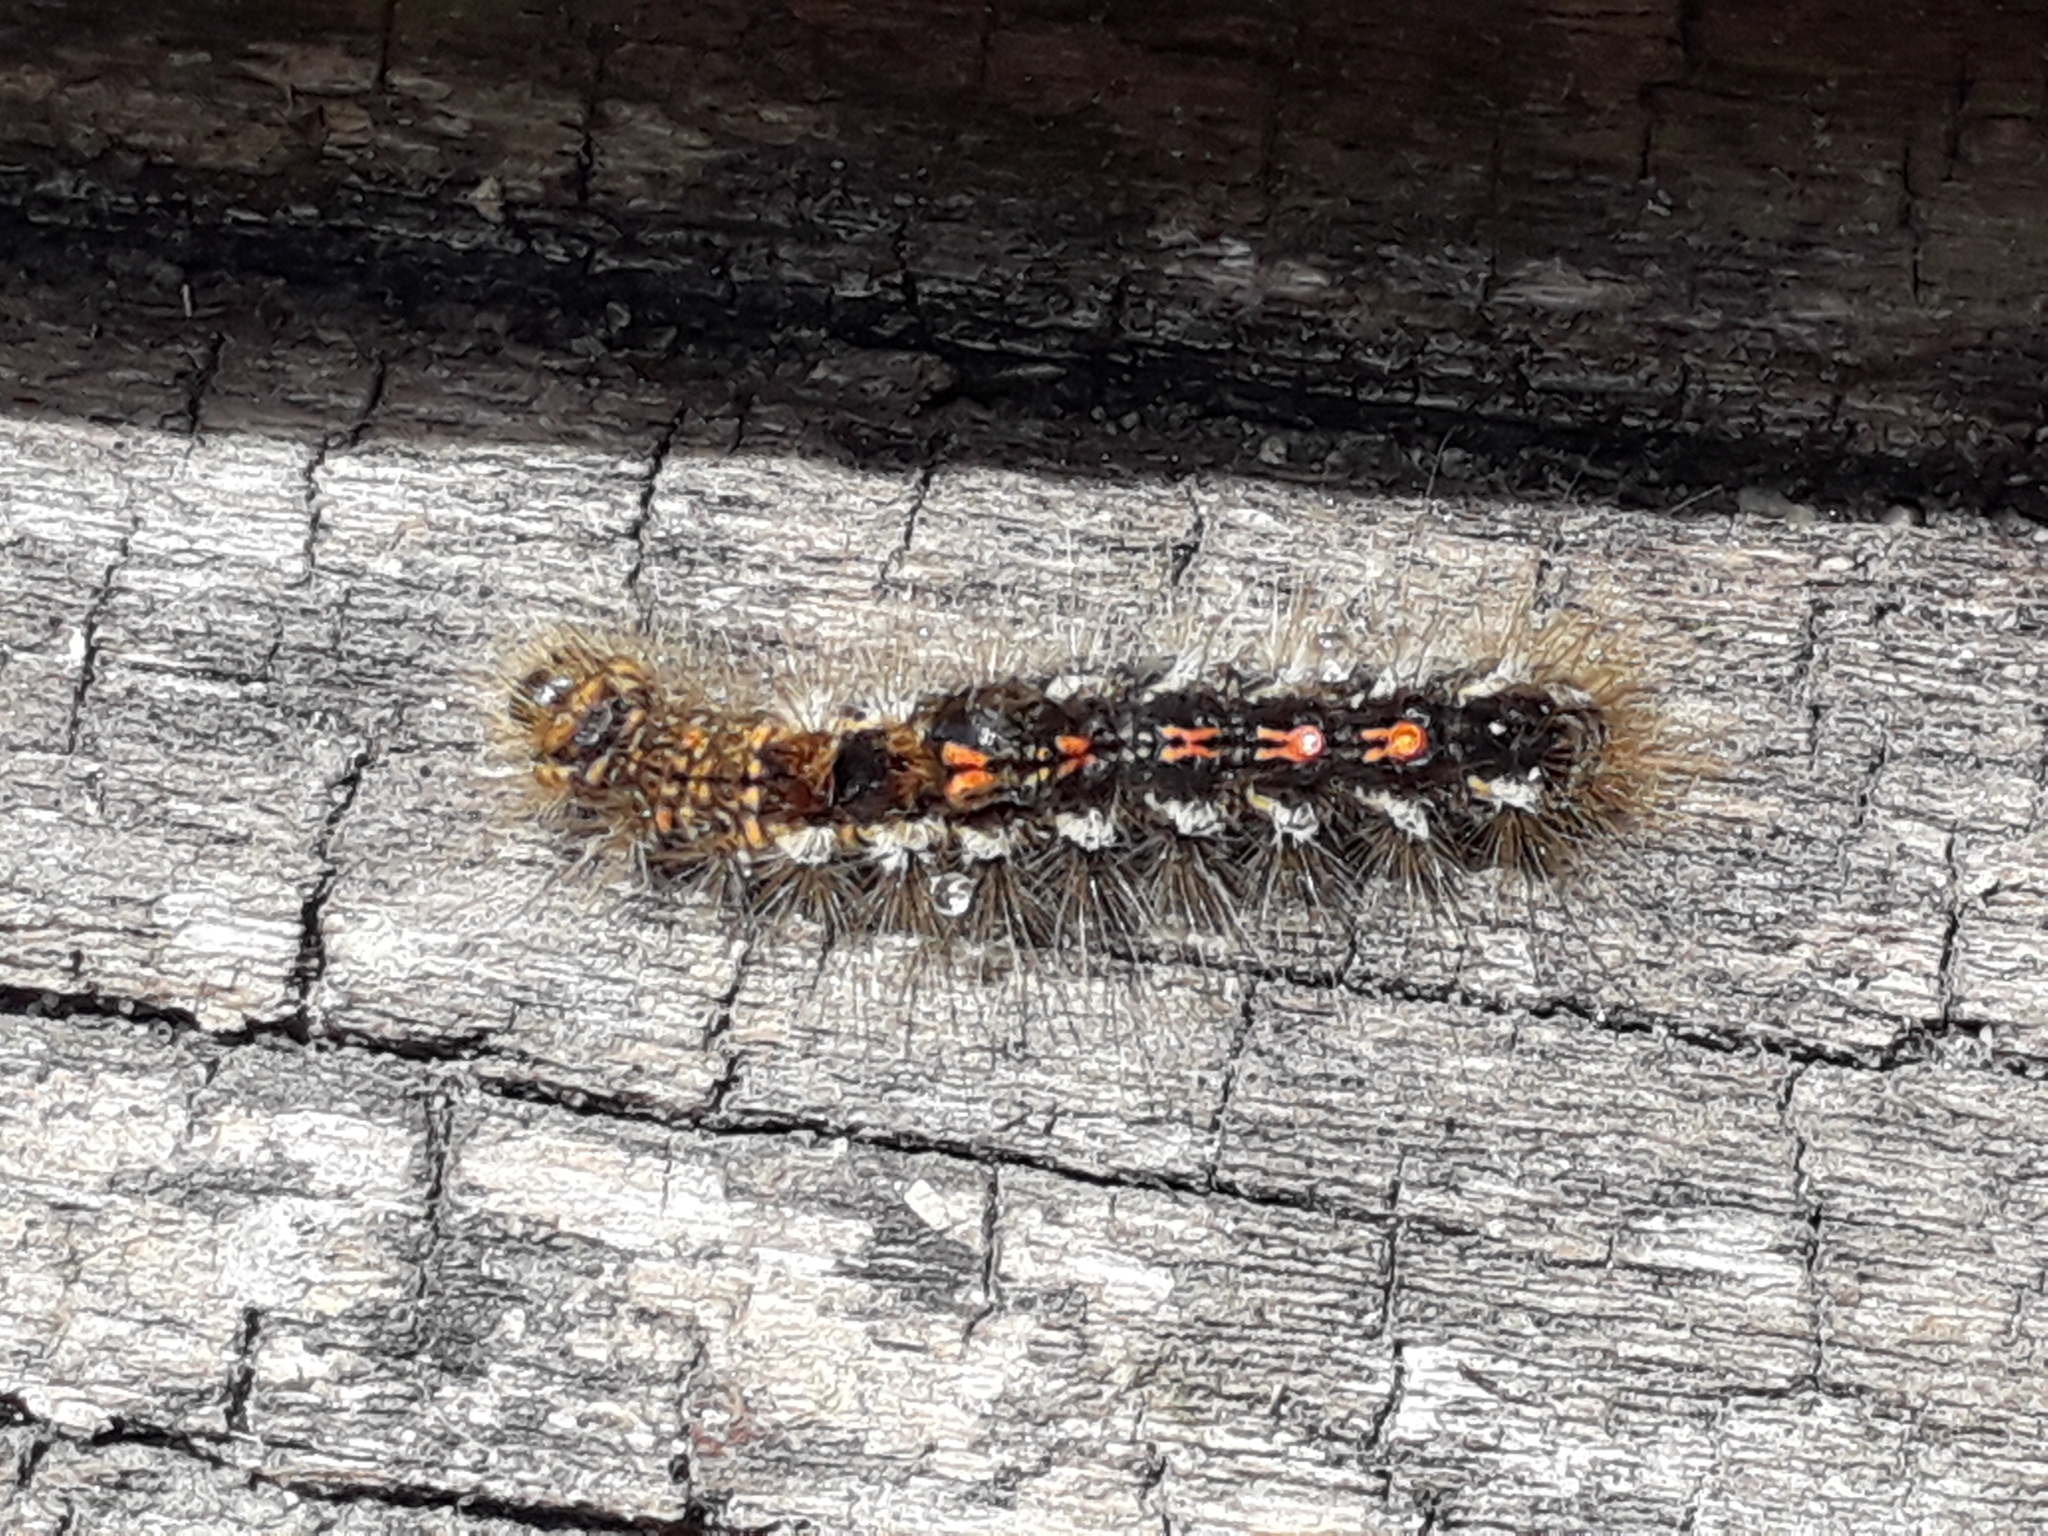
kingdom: Animalia
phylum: Arthropoda
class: Insecta
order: Lepidoptera
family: Erebidae
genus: Euproctis
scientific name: Euproctis chrysorrhoea
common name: Brown-tail
